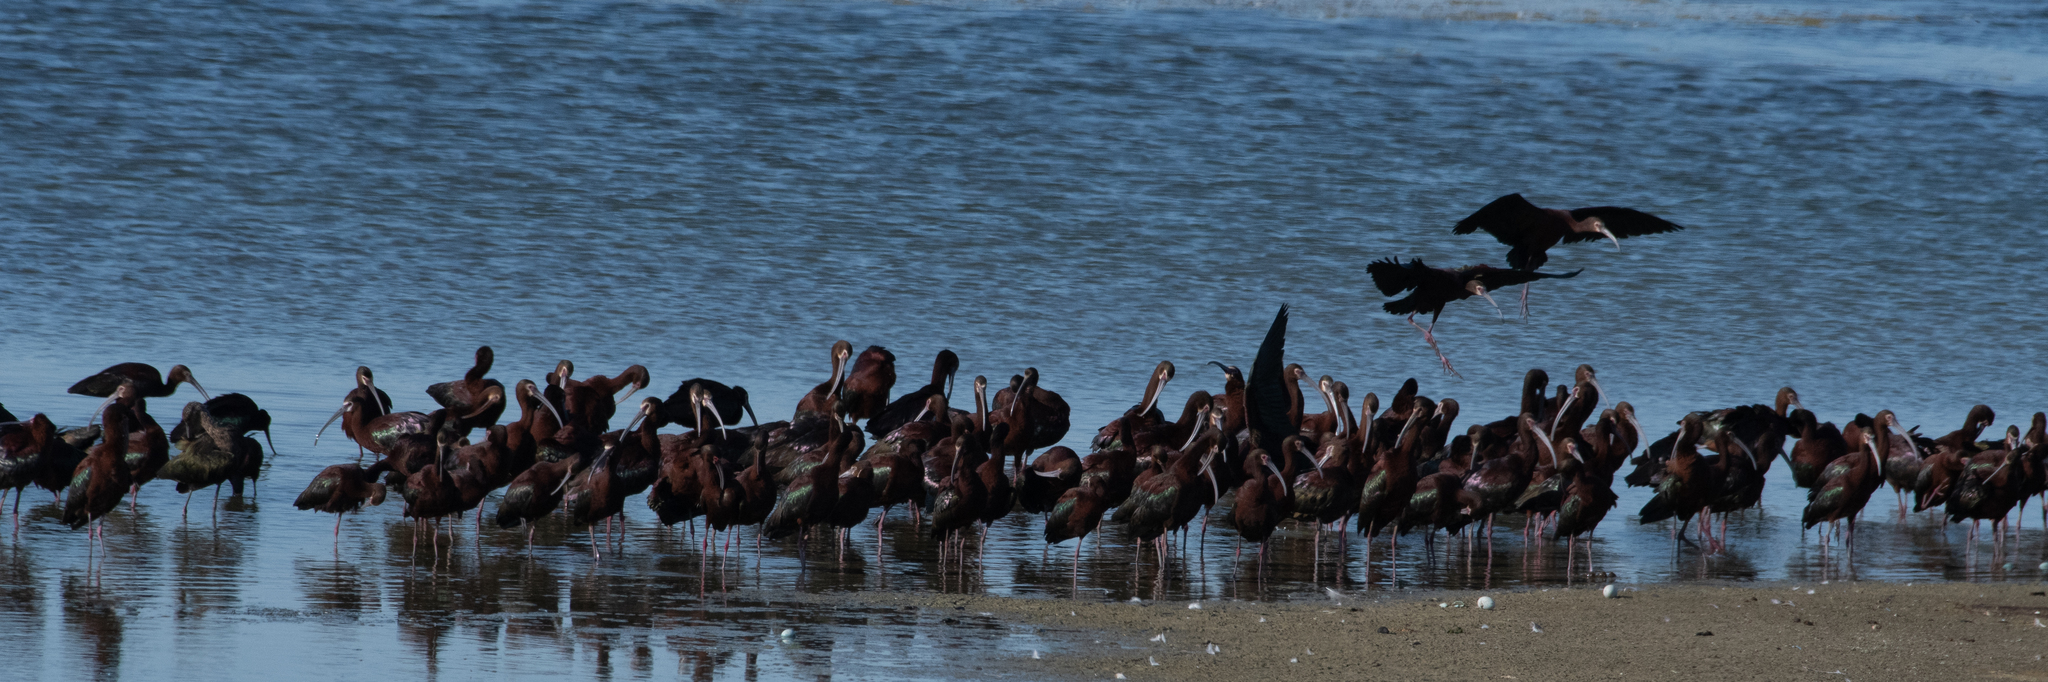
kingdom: Animalia
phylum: Chordata
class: Aves
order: Pelecaniformes
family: Threskiornithidae
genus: Plegadis
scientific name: Plegadis chihi
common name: White-faced ibis
